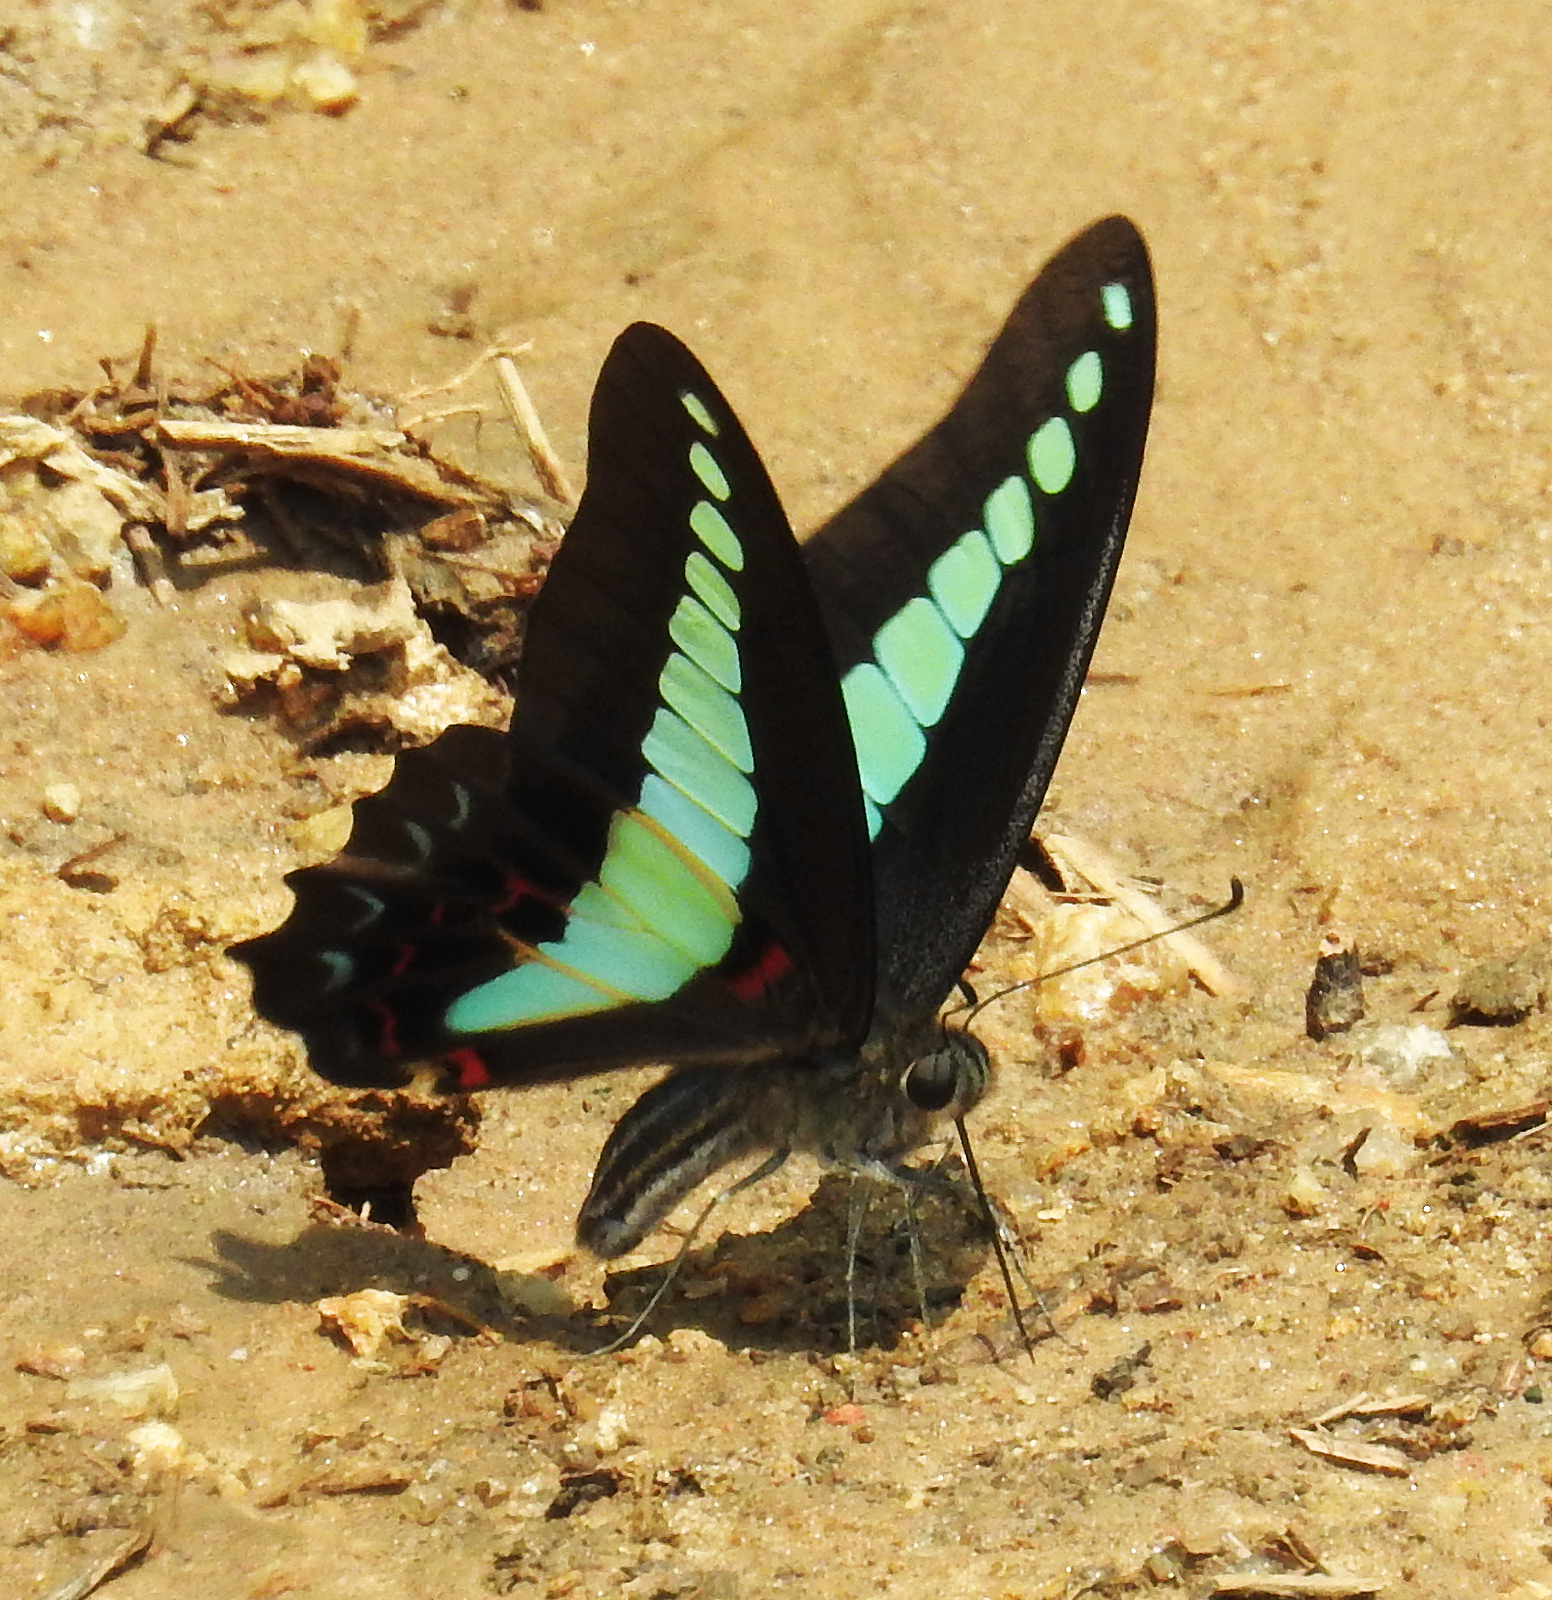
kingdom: Fungi
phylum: Ascomycota
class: Sordariomycetes
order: Microascales
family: Microascaceae
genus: Graphium
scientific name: Graphium sarpedon
